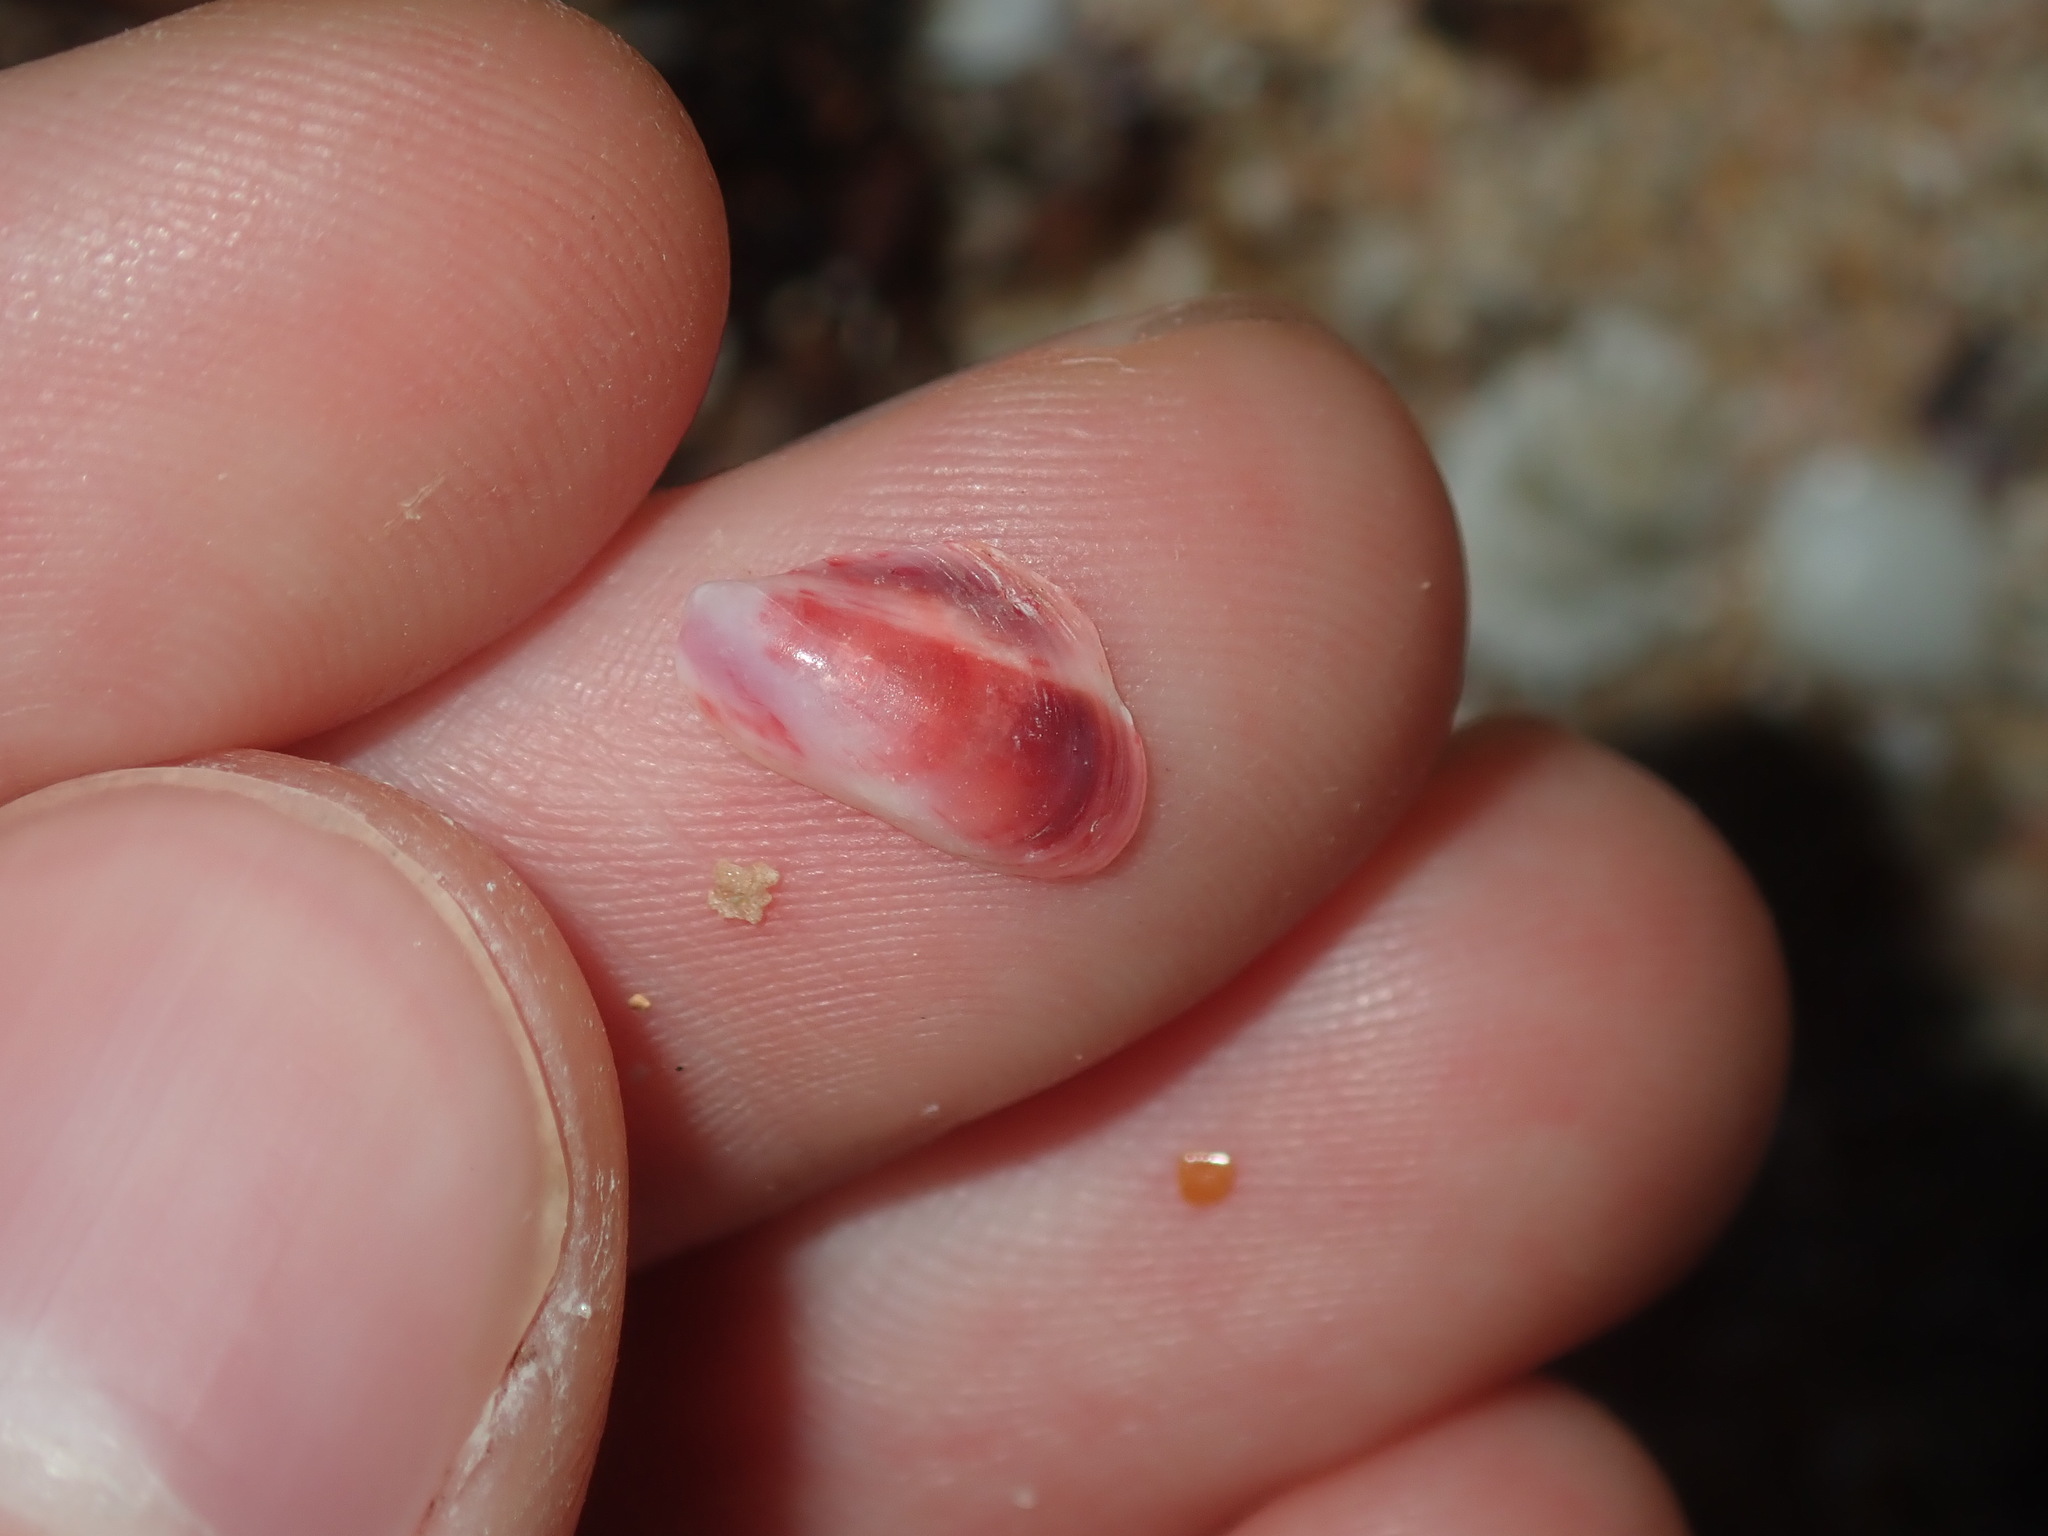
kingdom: Animalia
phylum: Mollusca
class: Bivalvia
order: Mytilida
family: Mytilidae
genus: Modiolus
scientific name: Modiolus areolatus
